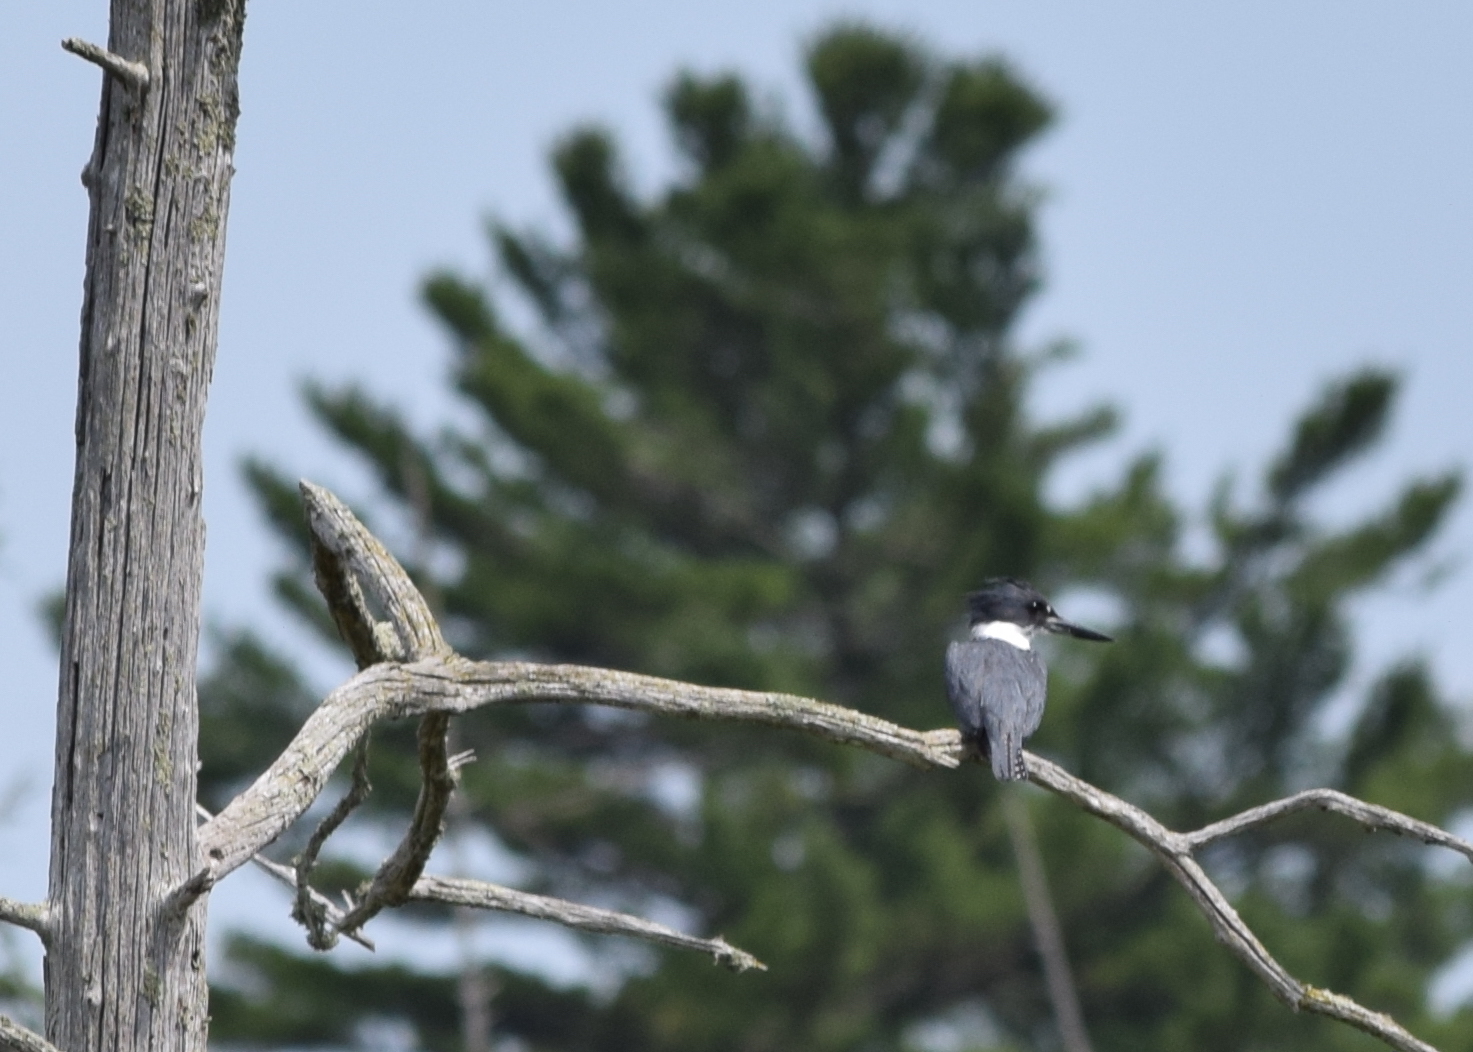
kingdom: Animalia
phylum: Chordata
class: Aves
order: Coraciiformes
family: Alcedinidae
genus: Megaceryle
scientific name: Megaceryle alcyon
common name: Belted kingfisher
